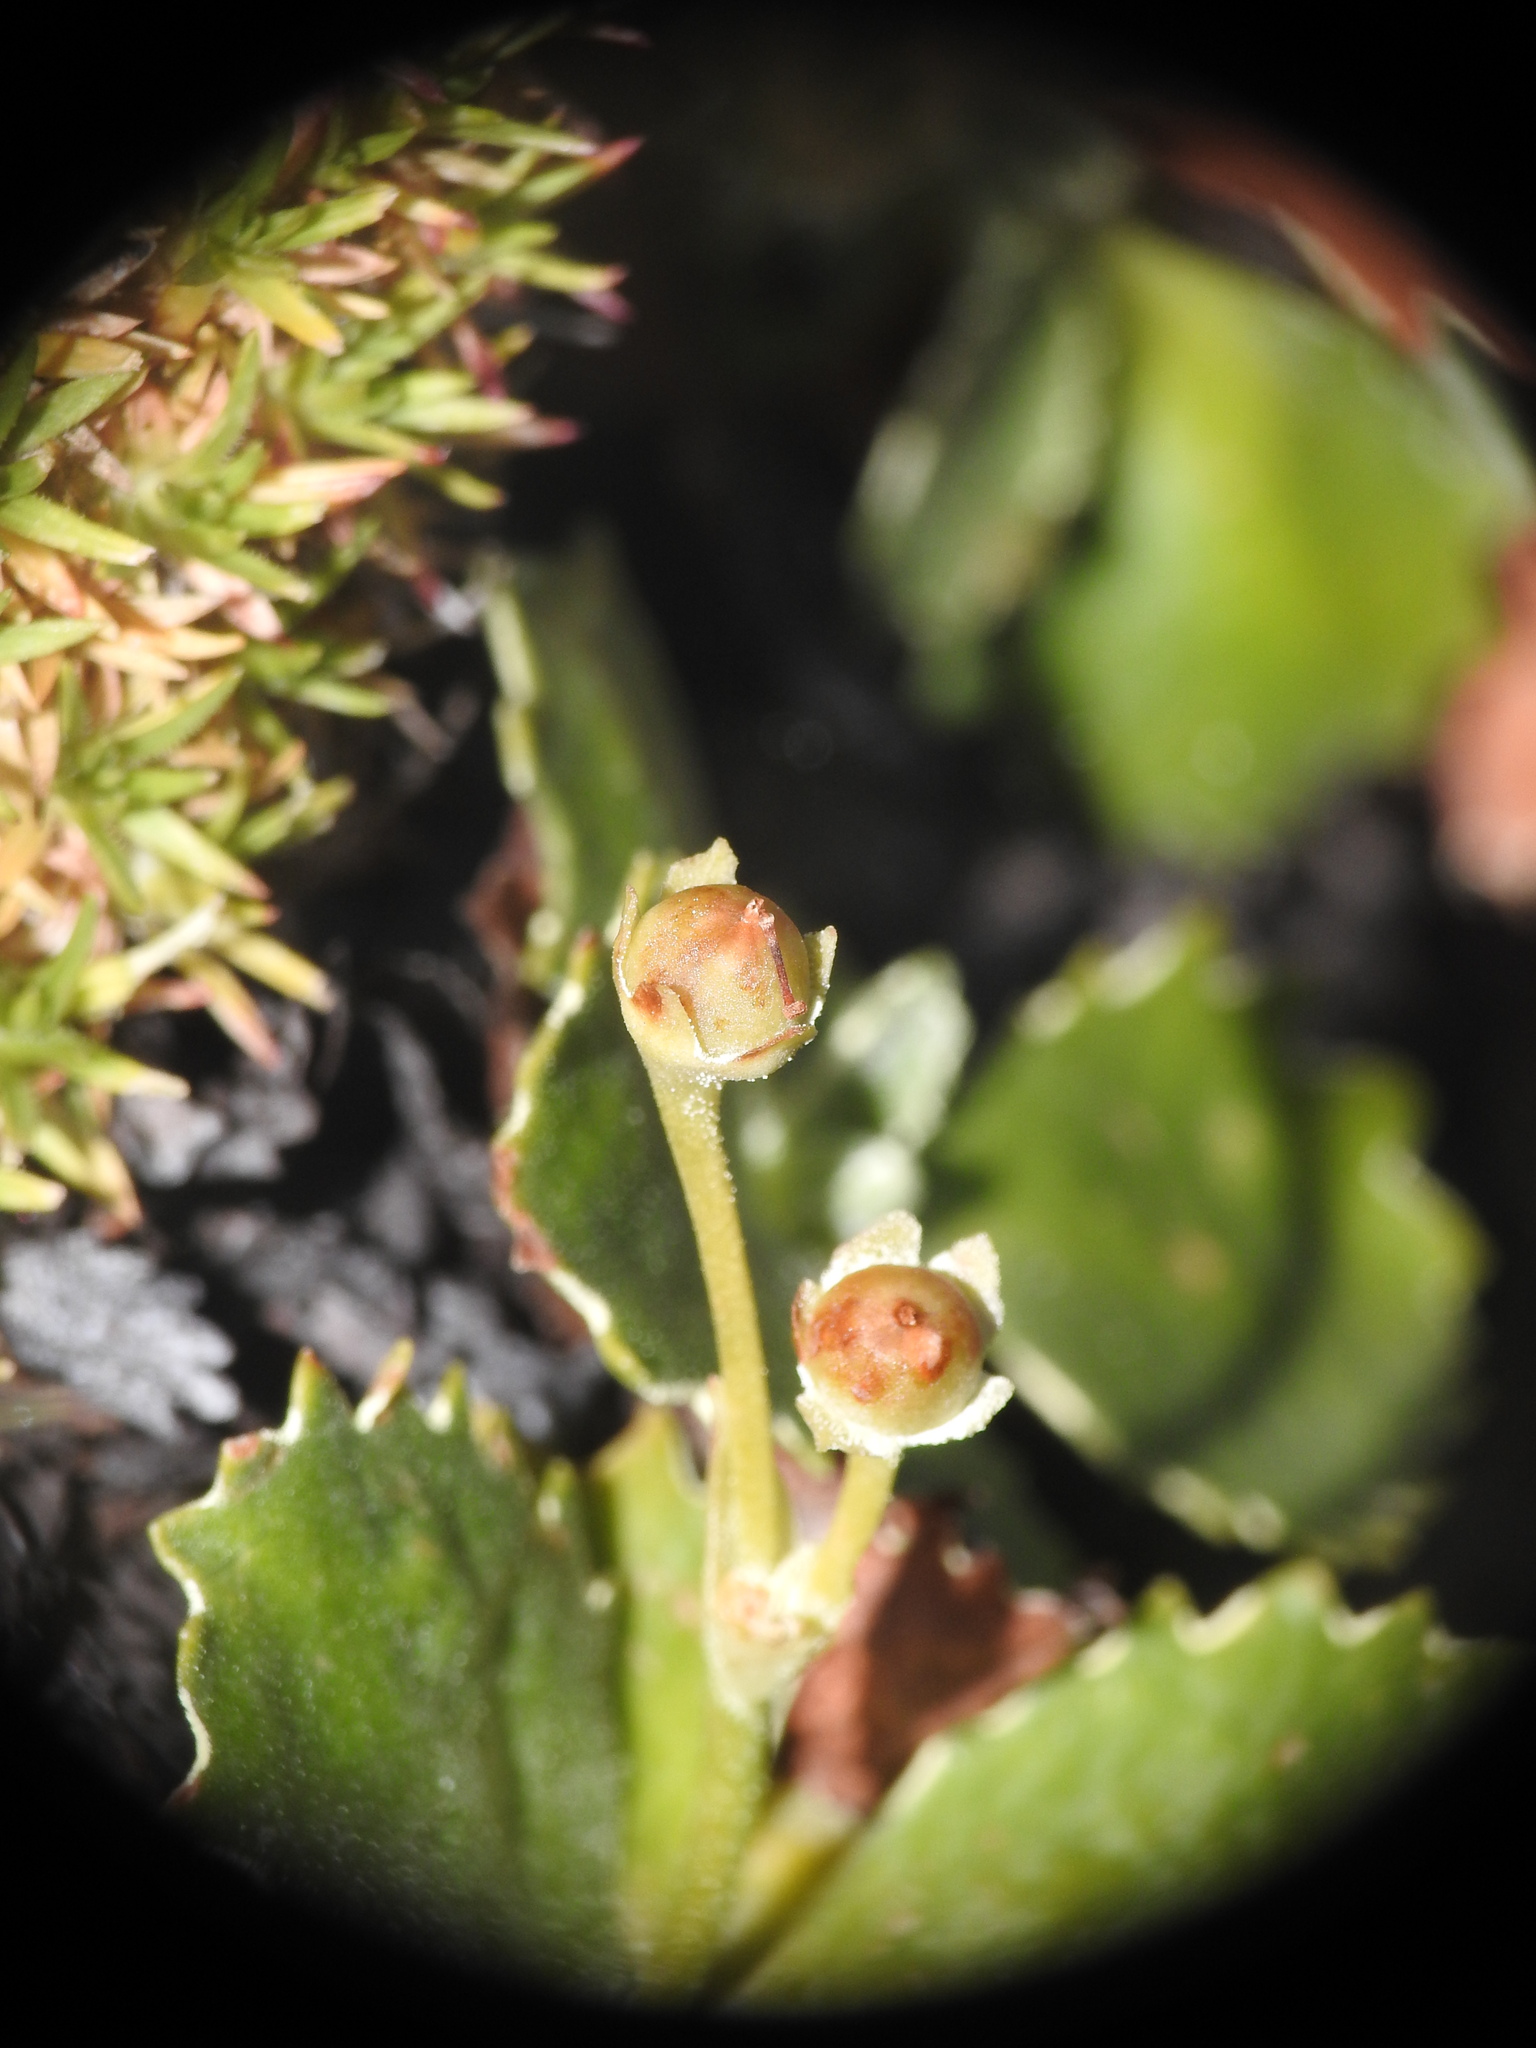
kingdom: Plantae
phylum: Tracheophyta
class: Magnoliopsida
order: Ericales
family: Primulaceae
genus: Primula
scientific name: Primula marginata
